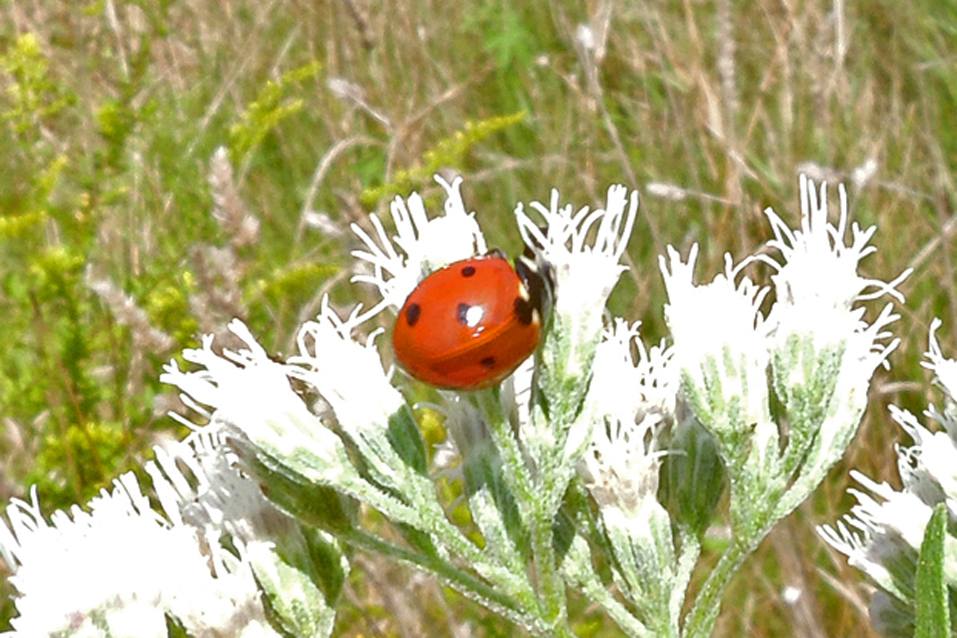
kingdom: Animalia
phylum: Arthropoda
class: Insecta
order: Coleoptera
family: Coccinellidae
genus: Coccinella
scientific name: Coccinella septempunctata
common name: Sevenspotted lady beetle
